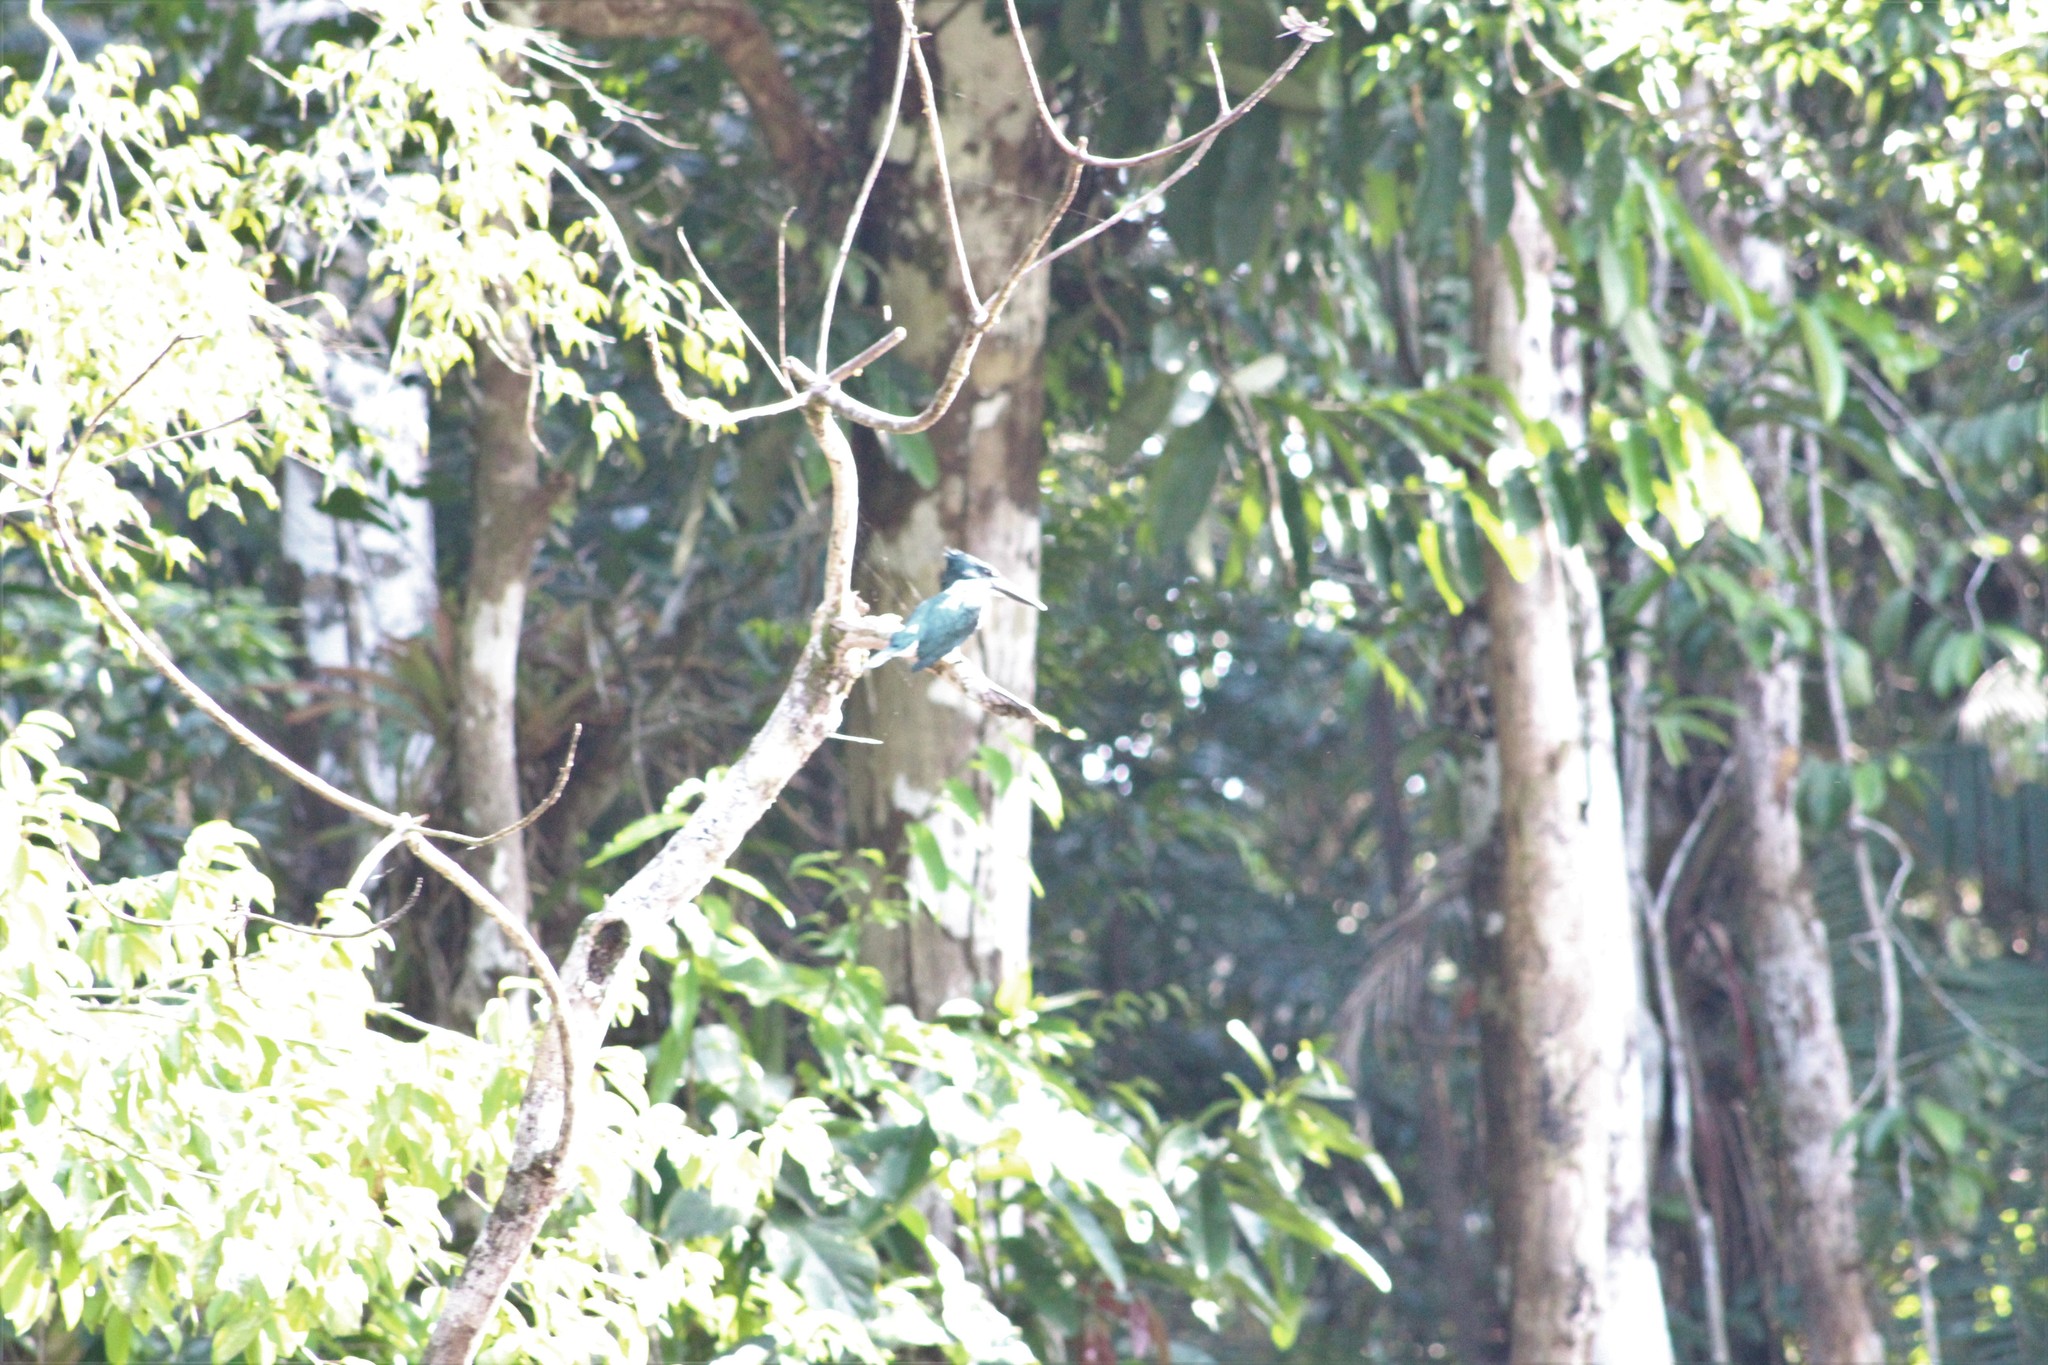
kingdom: Animalia
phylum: Chordata
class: Aves
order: Coraciiformes
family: Alcedinidae
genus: Chloroceryle
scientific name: Chloroceryle amazona
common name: Amazon kingfisher
